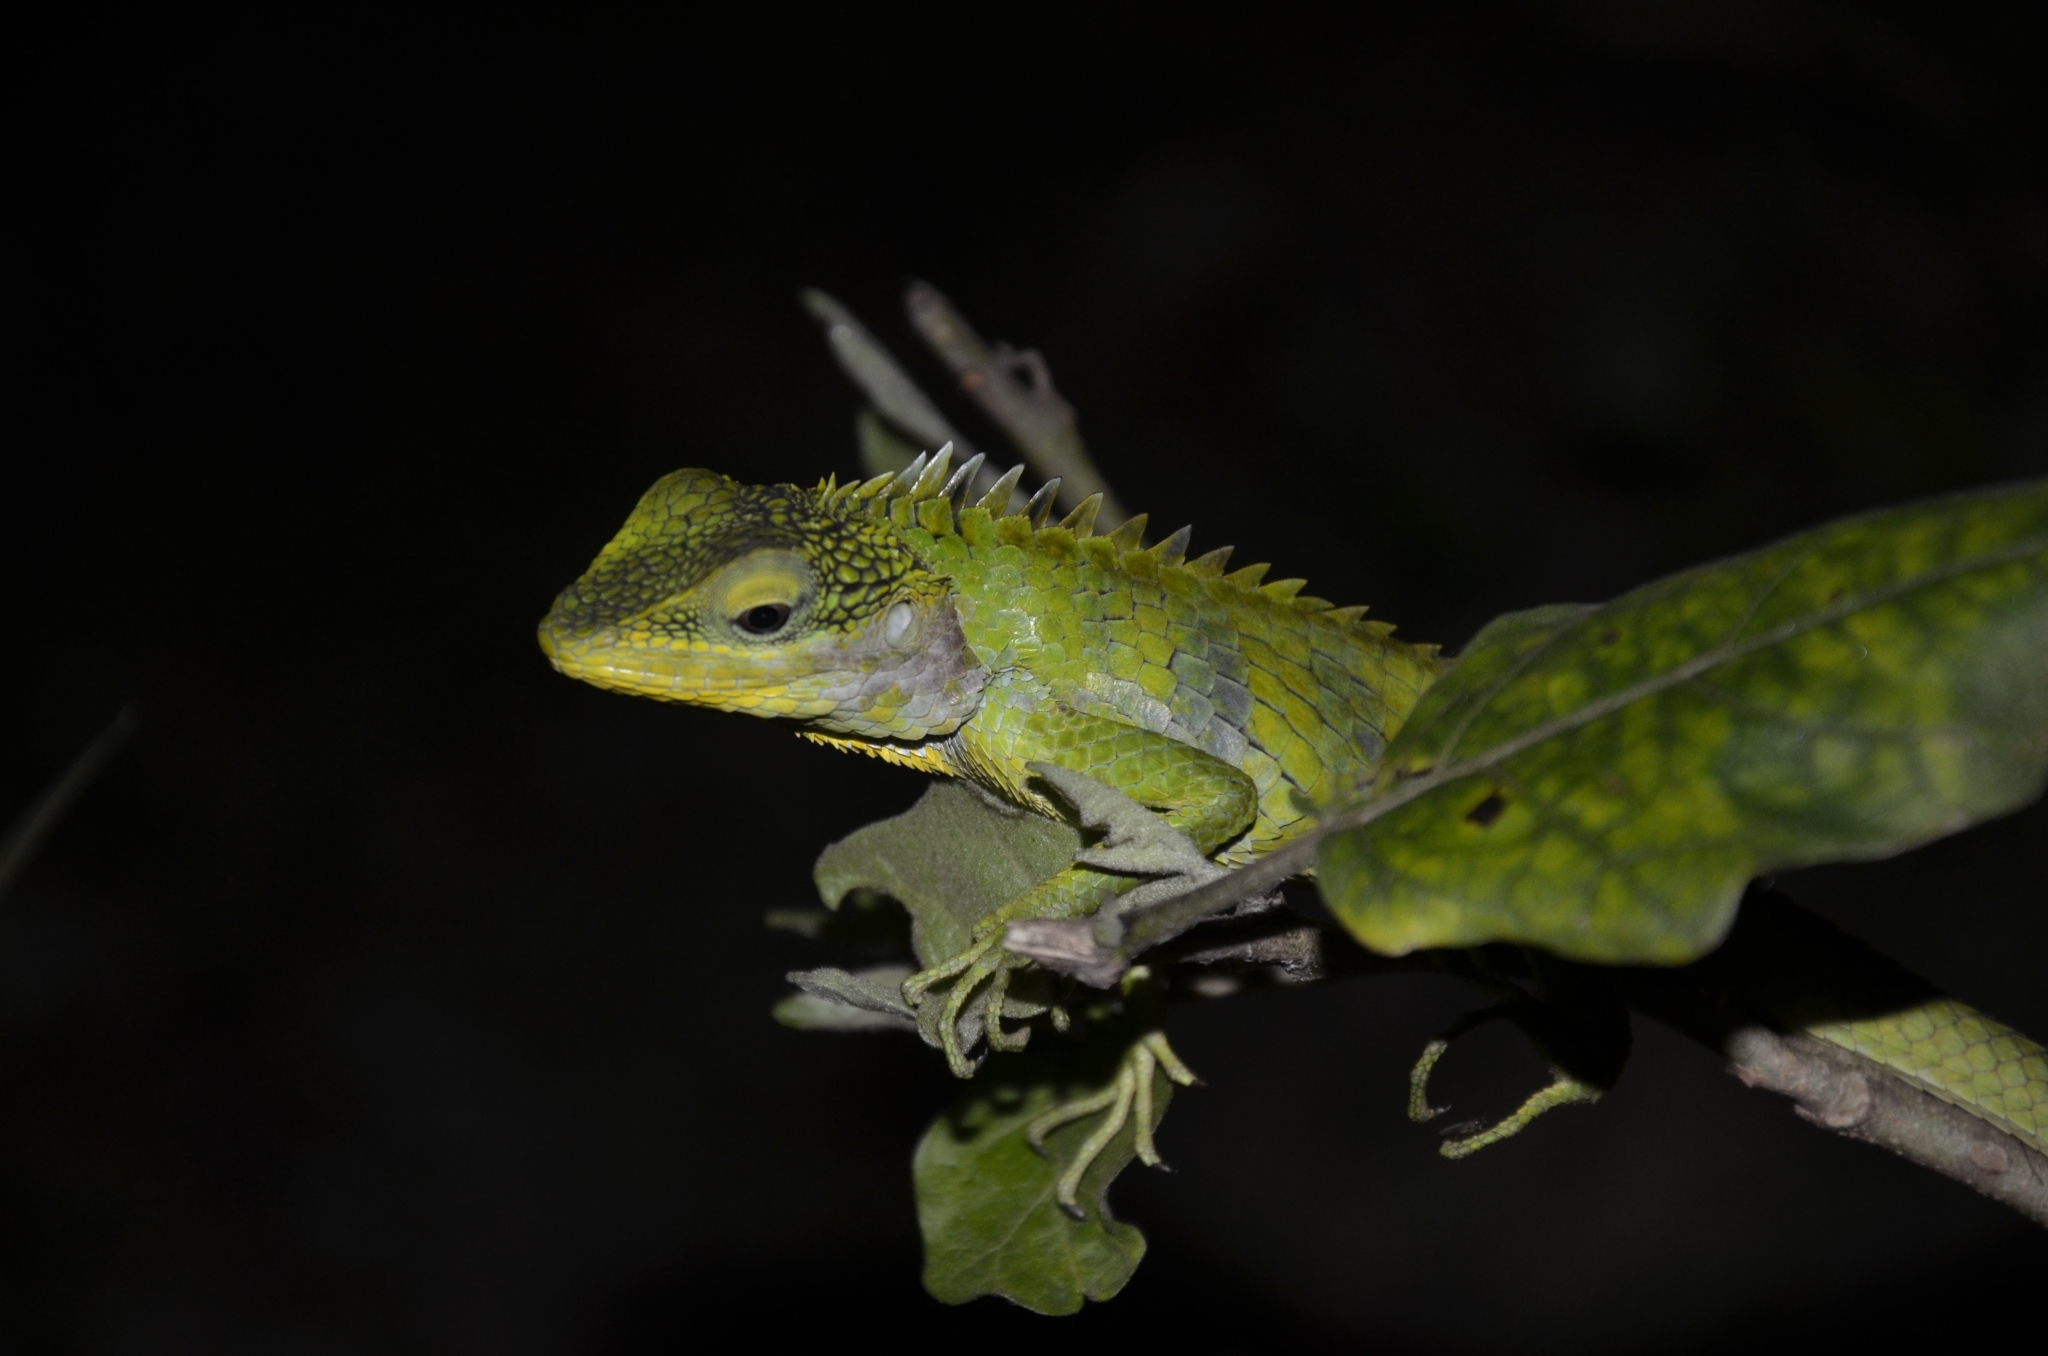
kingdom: Animalia
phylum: Chordata
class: Squamata
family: Agamidae
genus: Calotes
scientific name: Calotes grandisquamis
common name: Big scaled variable lizard
